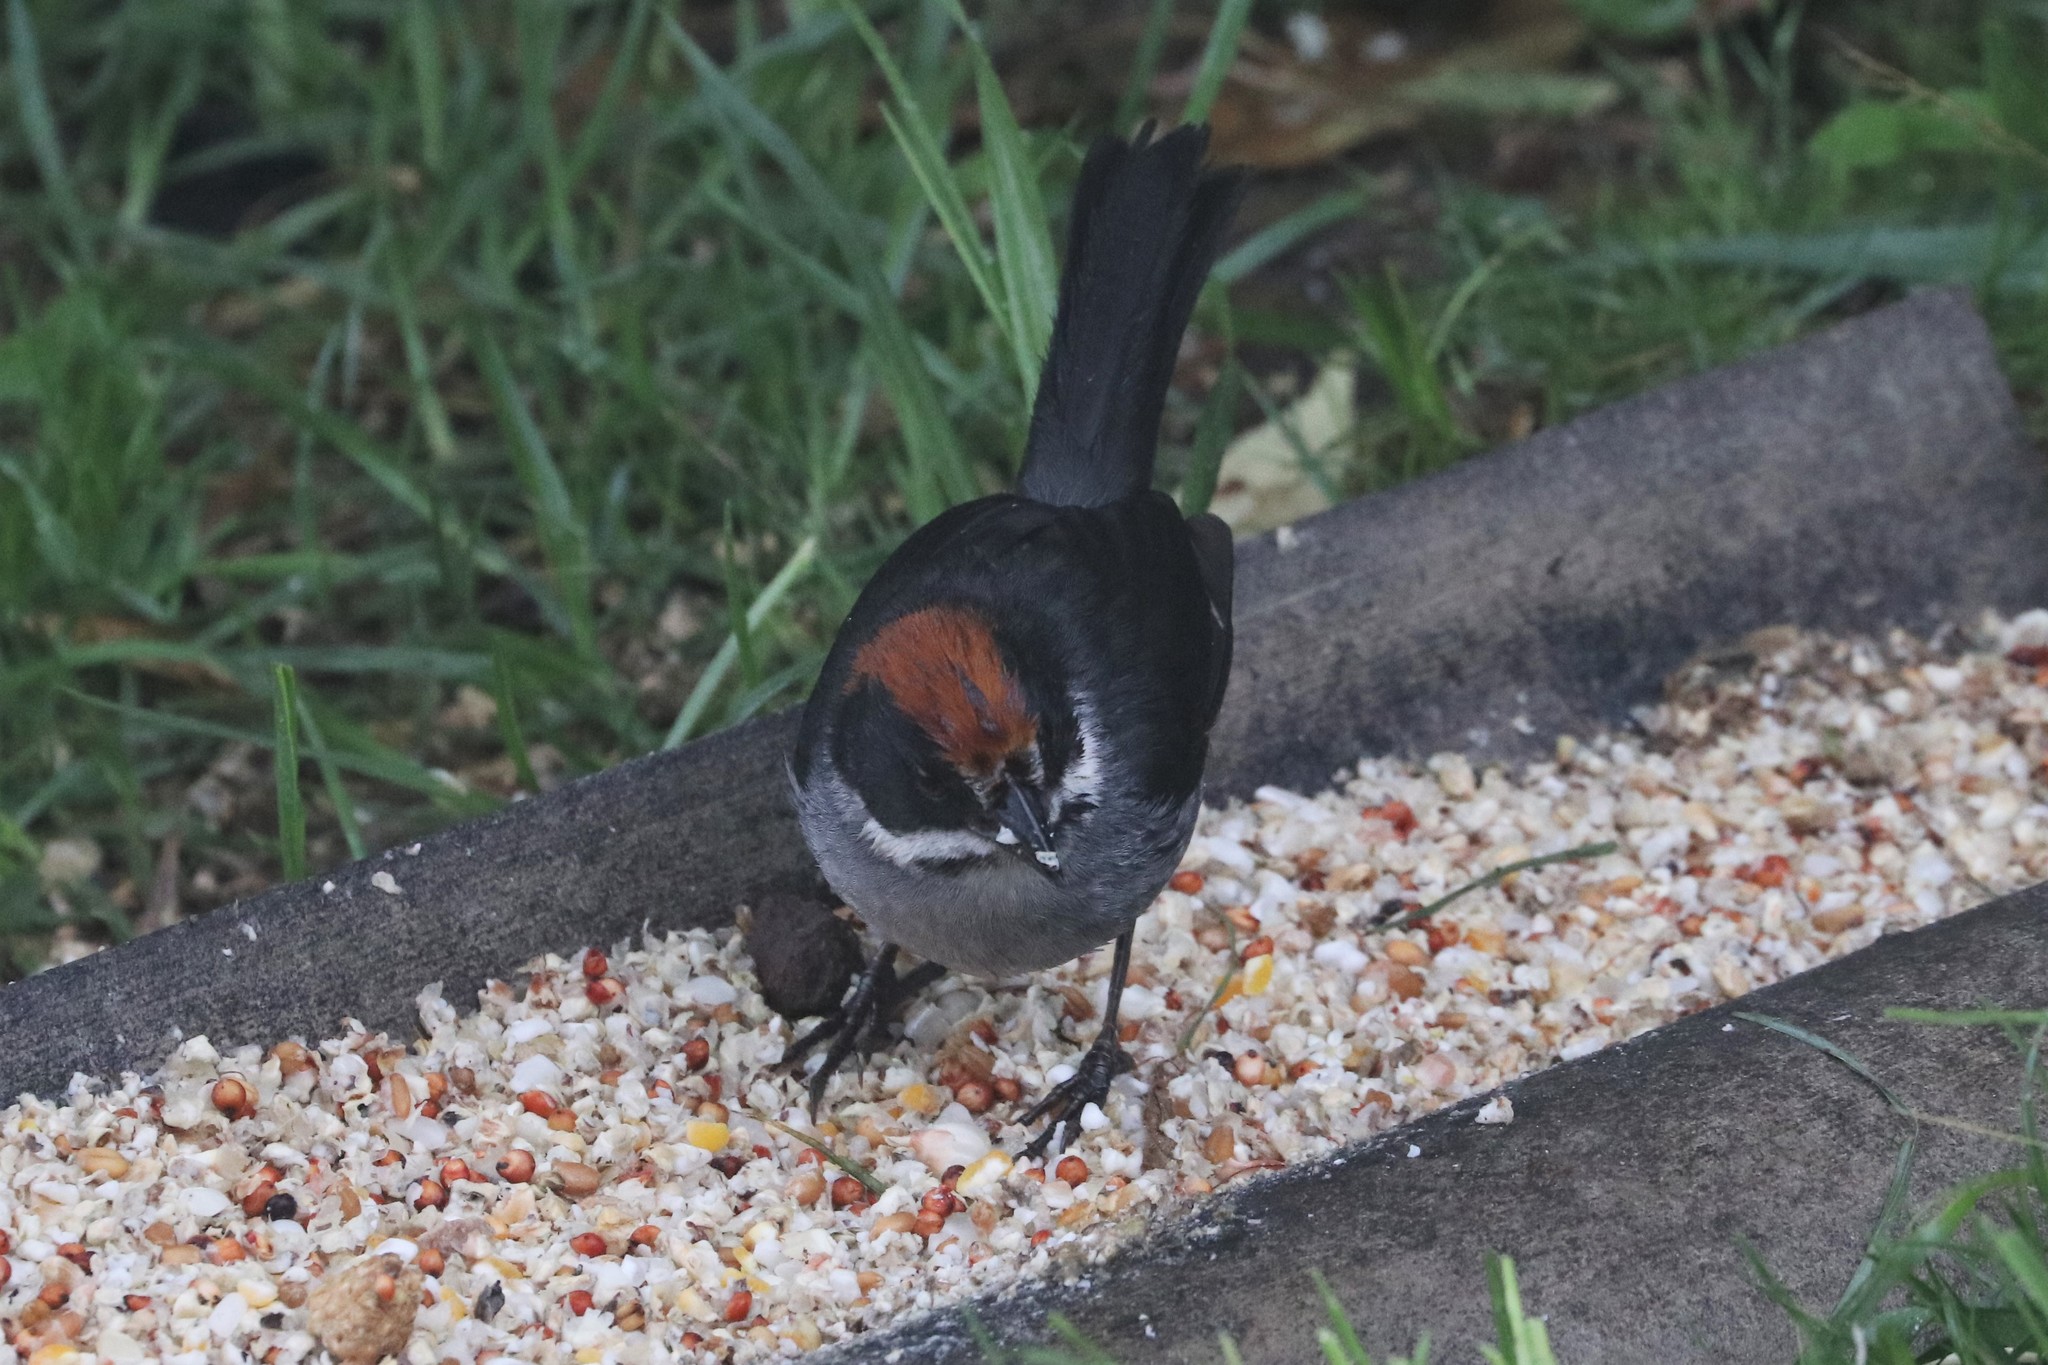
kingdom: Animalia
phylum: Chordata
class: Aves
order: Passeriformes
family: Passerellidae
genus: Atlapetes
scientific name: Atlapetes schistaceus
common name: Slaty brushfinch
